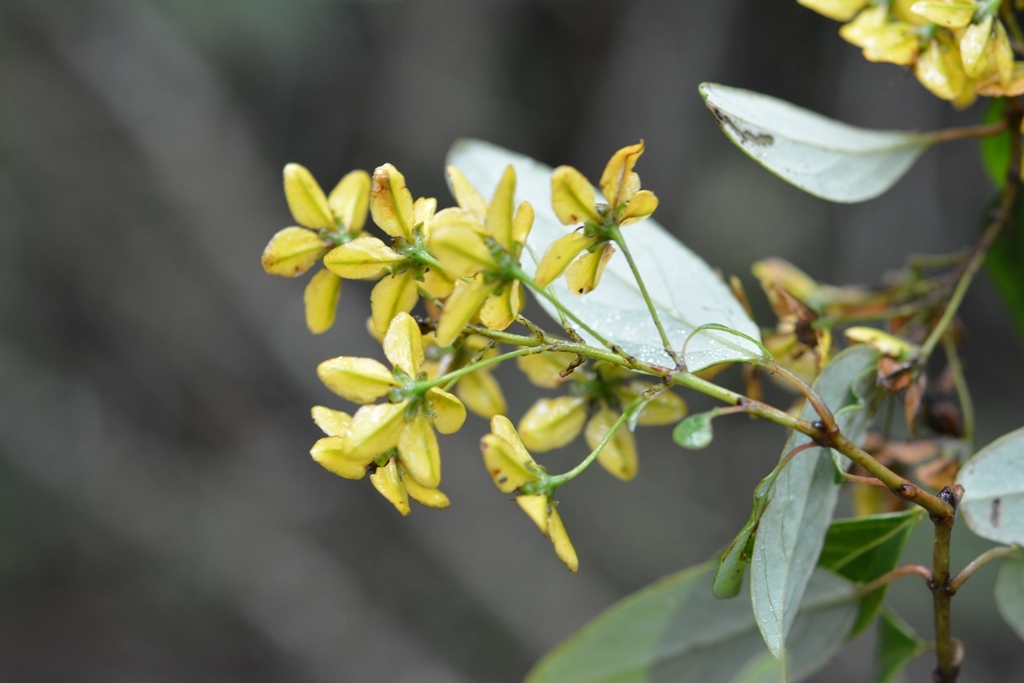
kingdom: Plantae
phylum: Tracheophyta
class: Magnoliopsida
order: Malpighiales
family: Malpighiaceae
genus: Galphimia
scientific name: Galphimia speciosa
